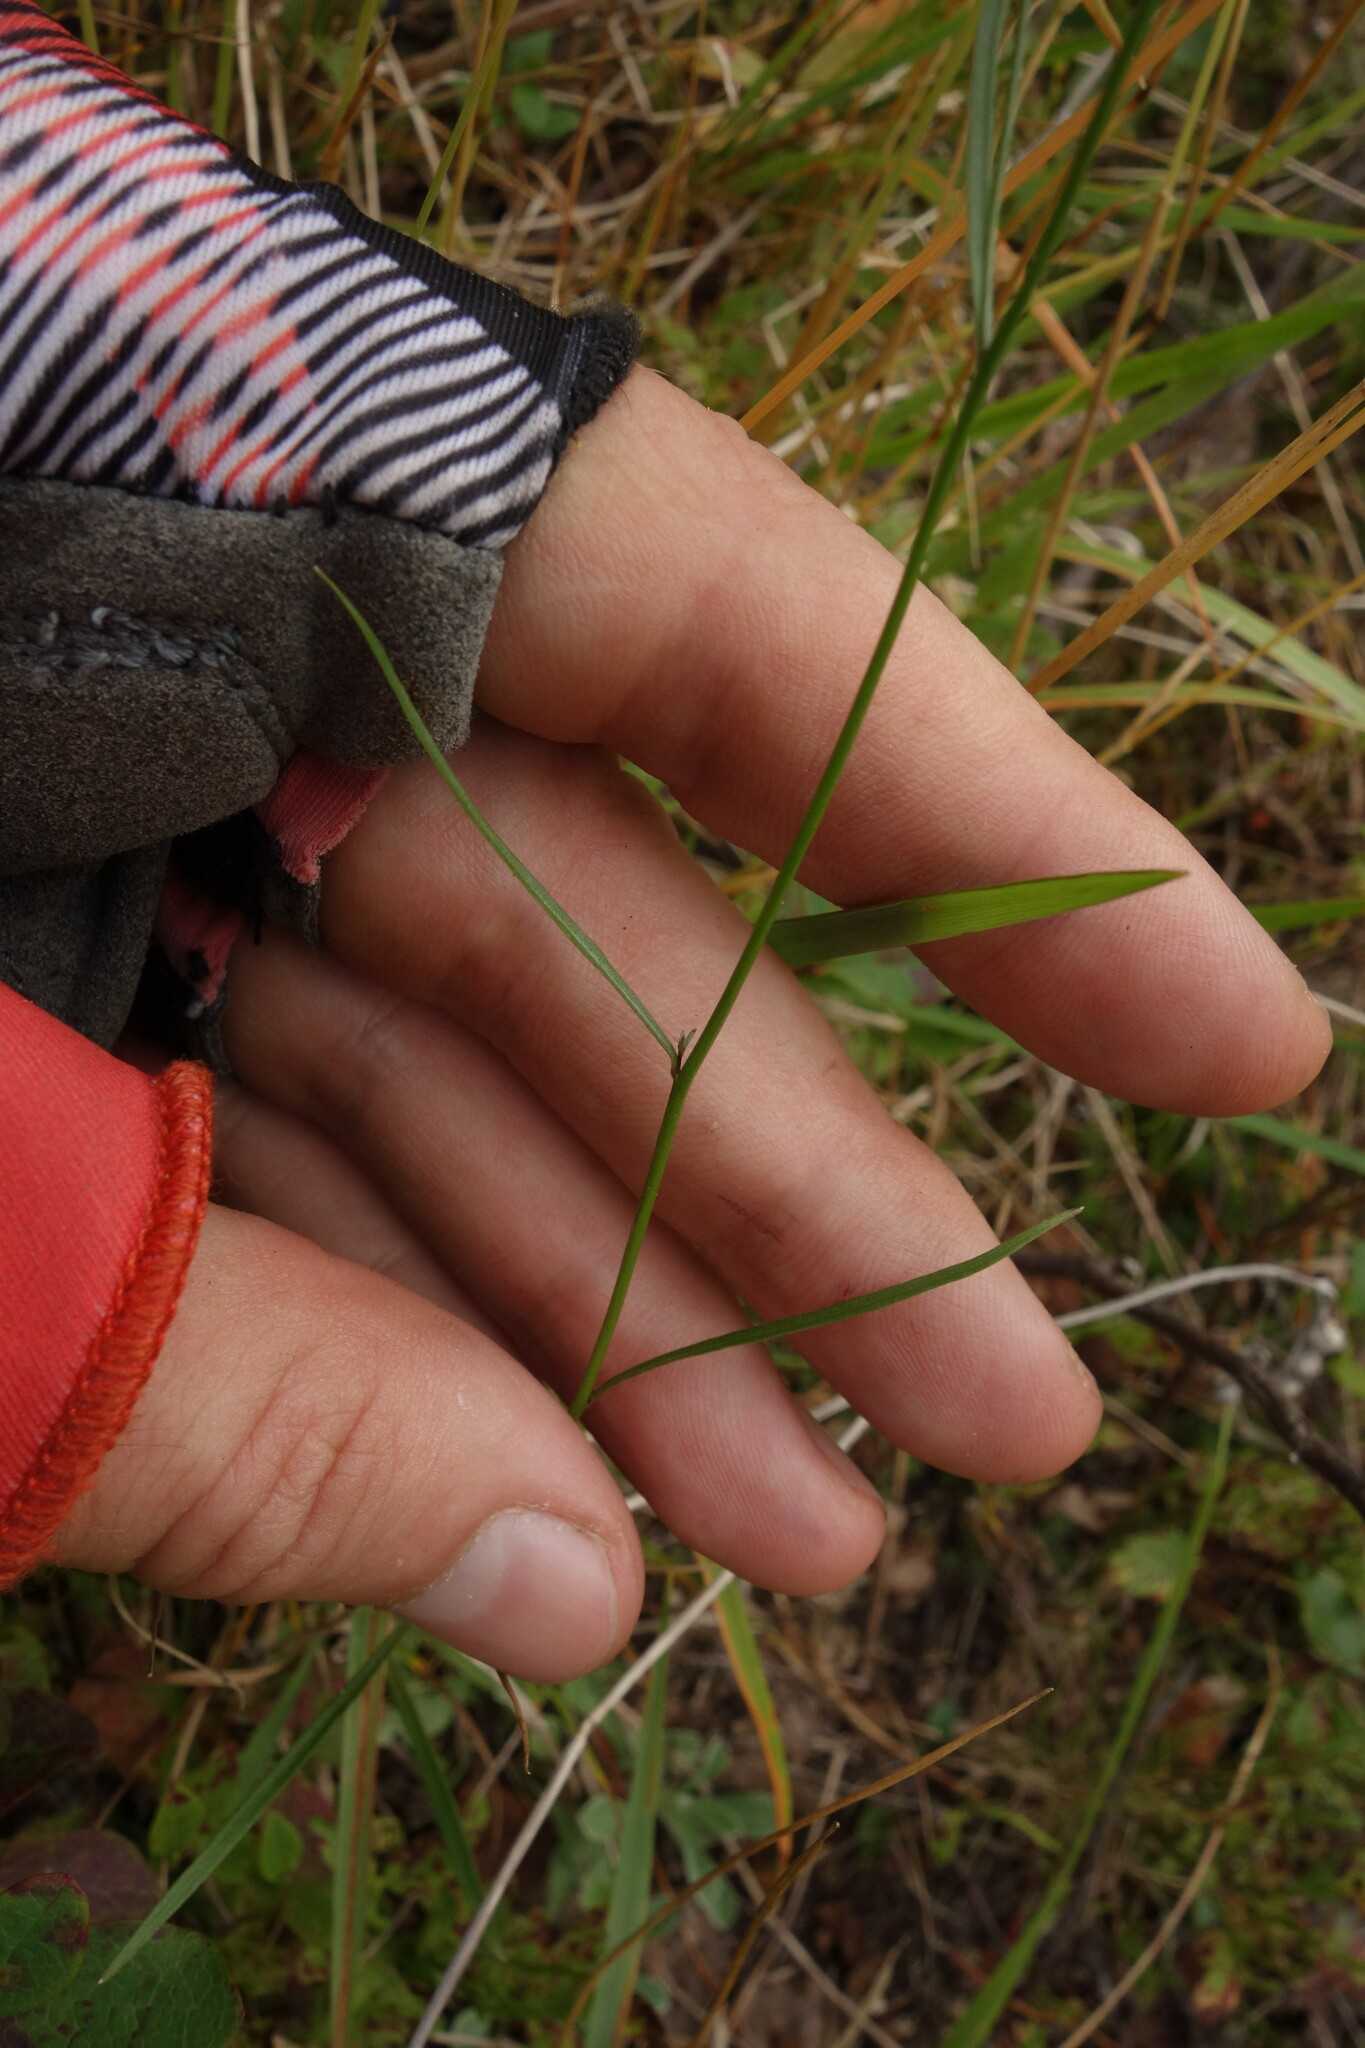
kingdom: Plantae
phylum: Tracheophyta
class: Magnoliopsida
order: Asterales
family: Campanulaceae
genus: Campanula
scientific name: Campanula rotundifolia
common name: Harebell
